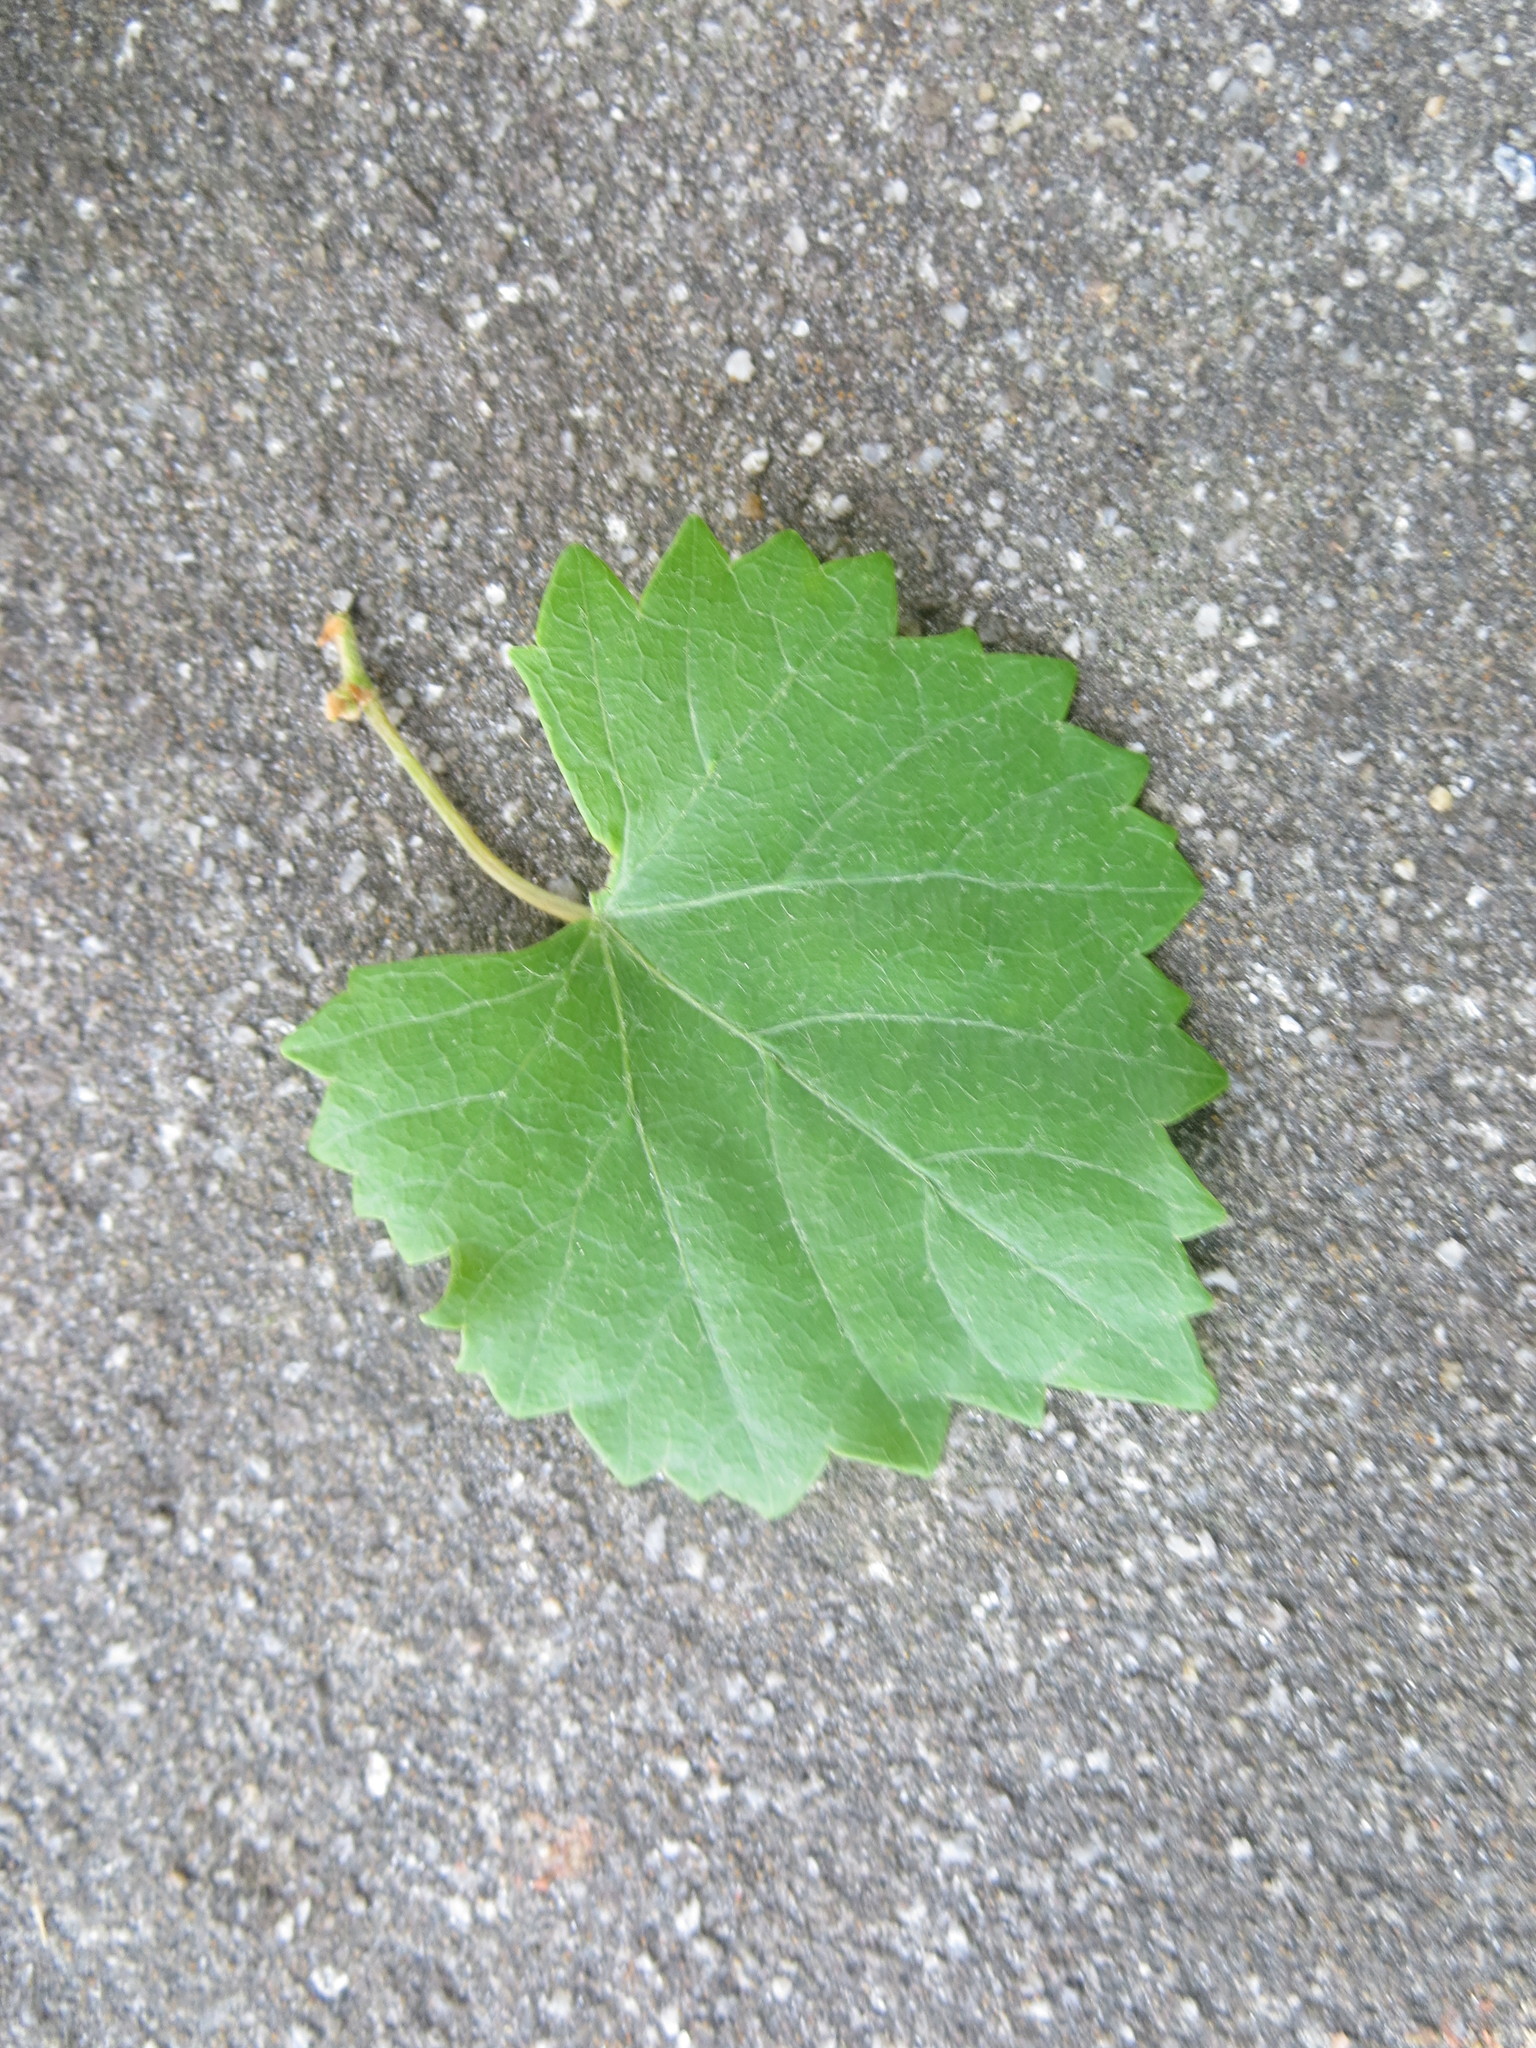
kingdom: Plantae
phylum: Tracheophyta
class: Magnoliopsida
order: Vitales
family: Vitaceae
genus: Vitis
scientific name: Vitis rotundifolia
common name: Muscadine grape
